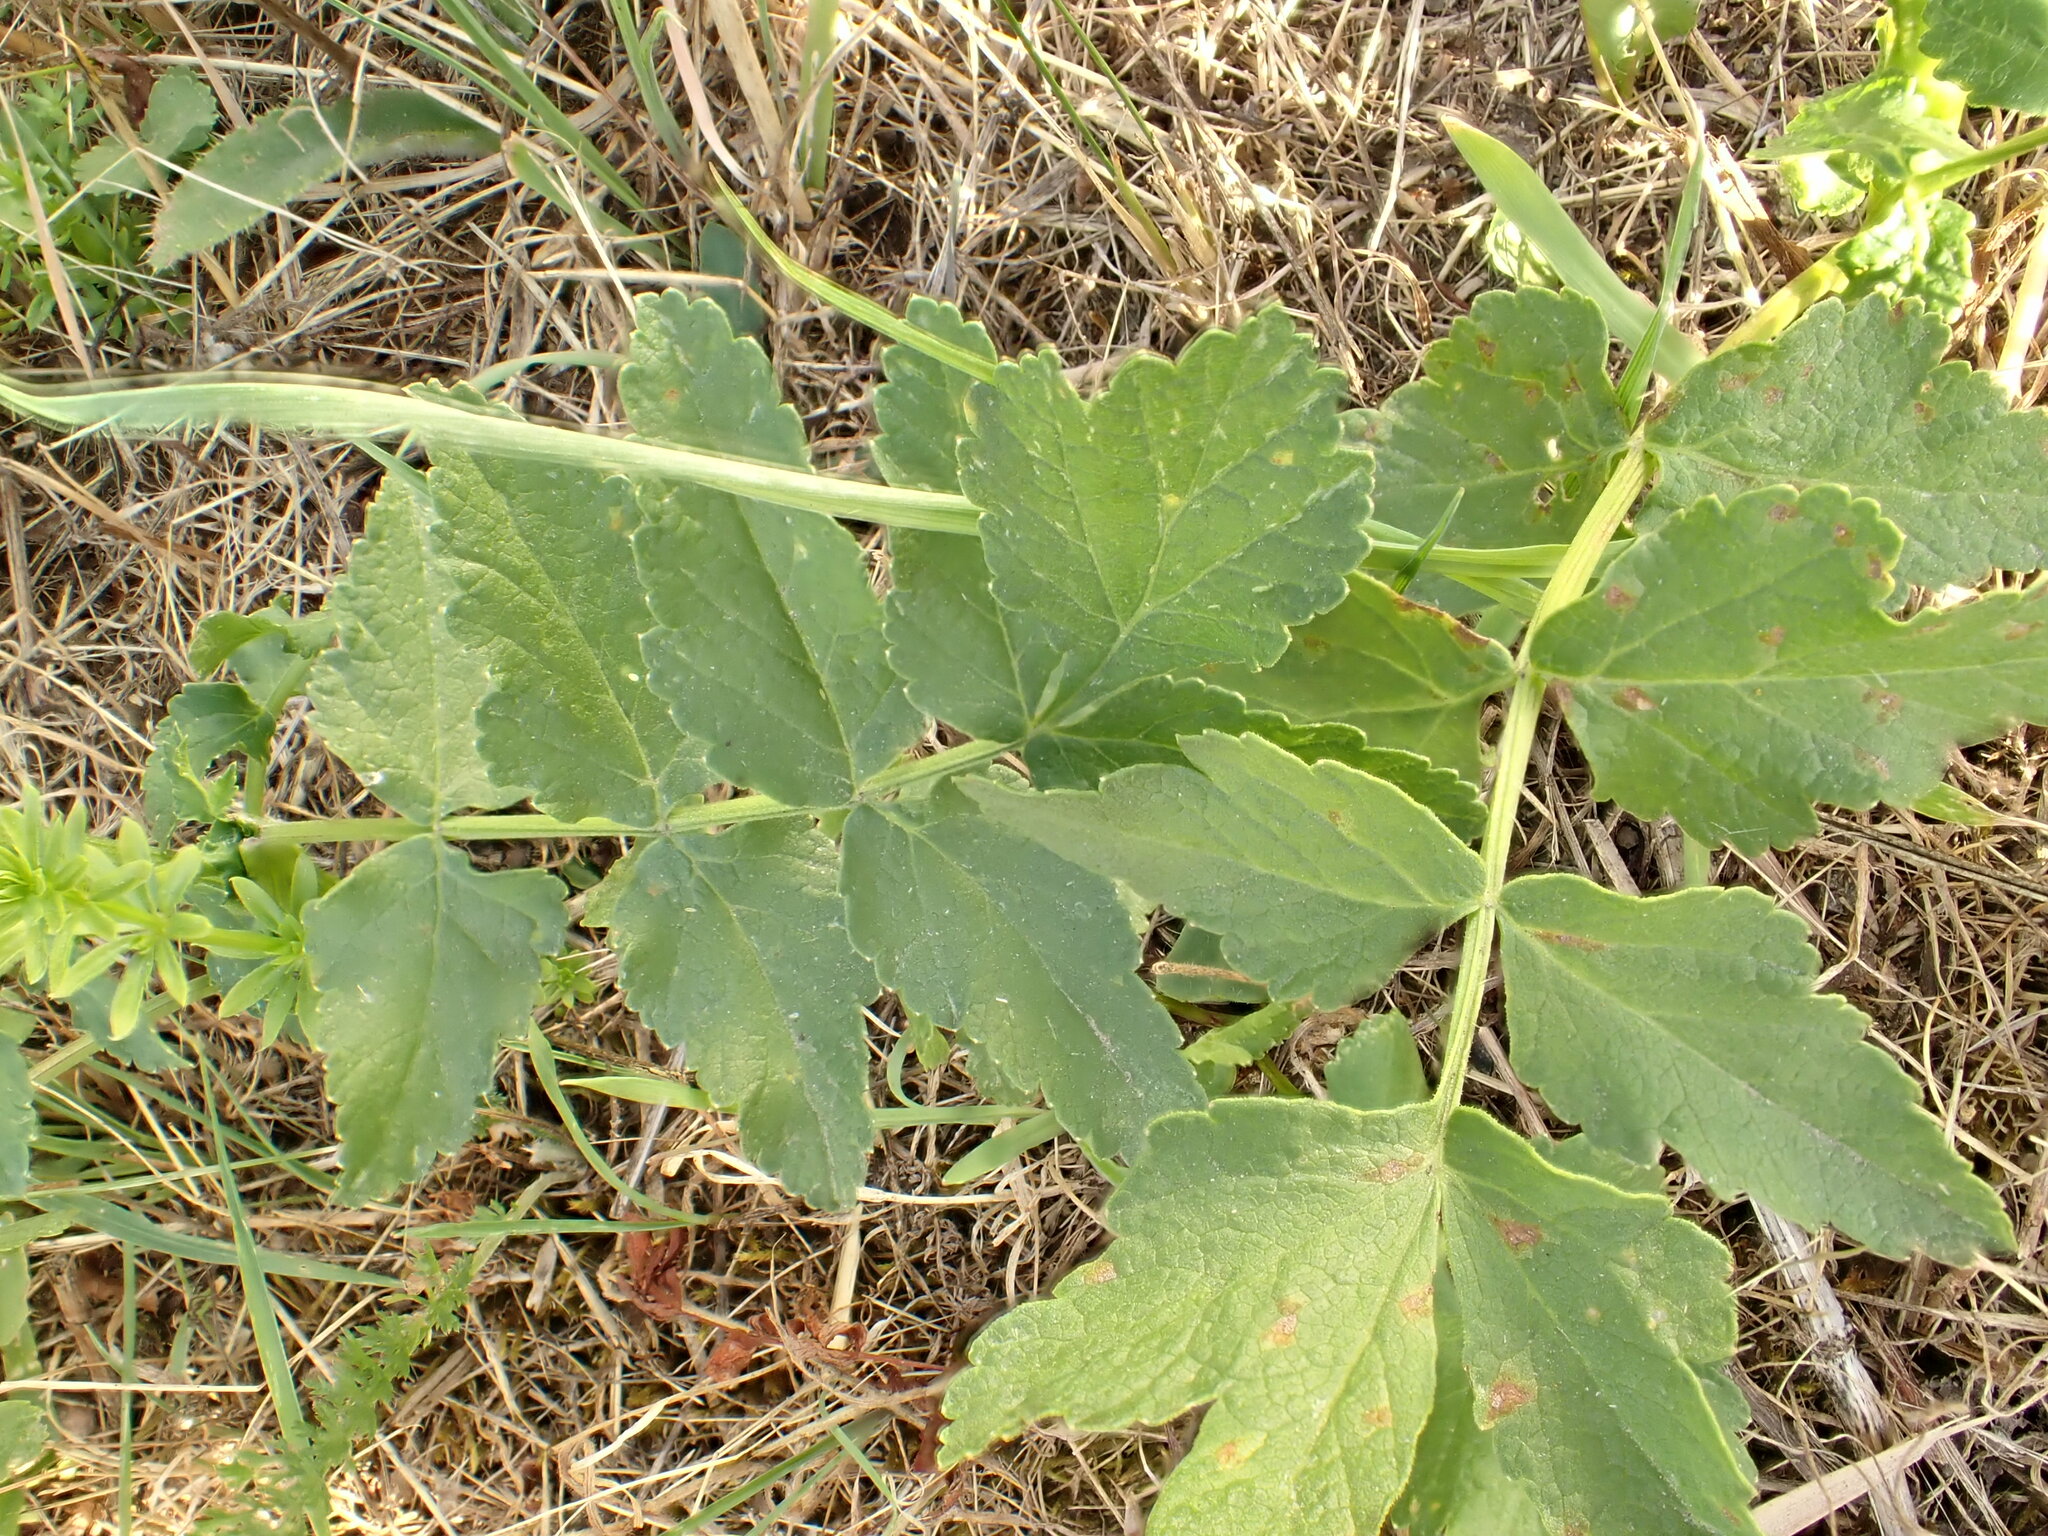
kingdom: Plantae
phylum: Tracheophyta
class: Magnoliopsida
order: Apiales
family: Apiaceae
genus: Pastinaca
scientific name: Pastinaca sativa
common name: Wild parsnip
